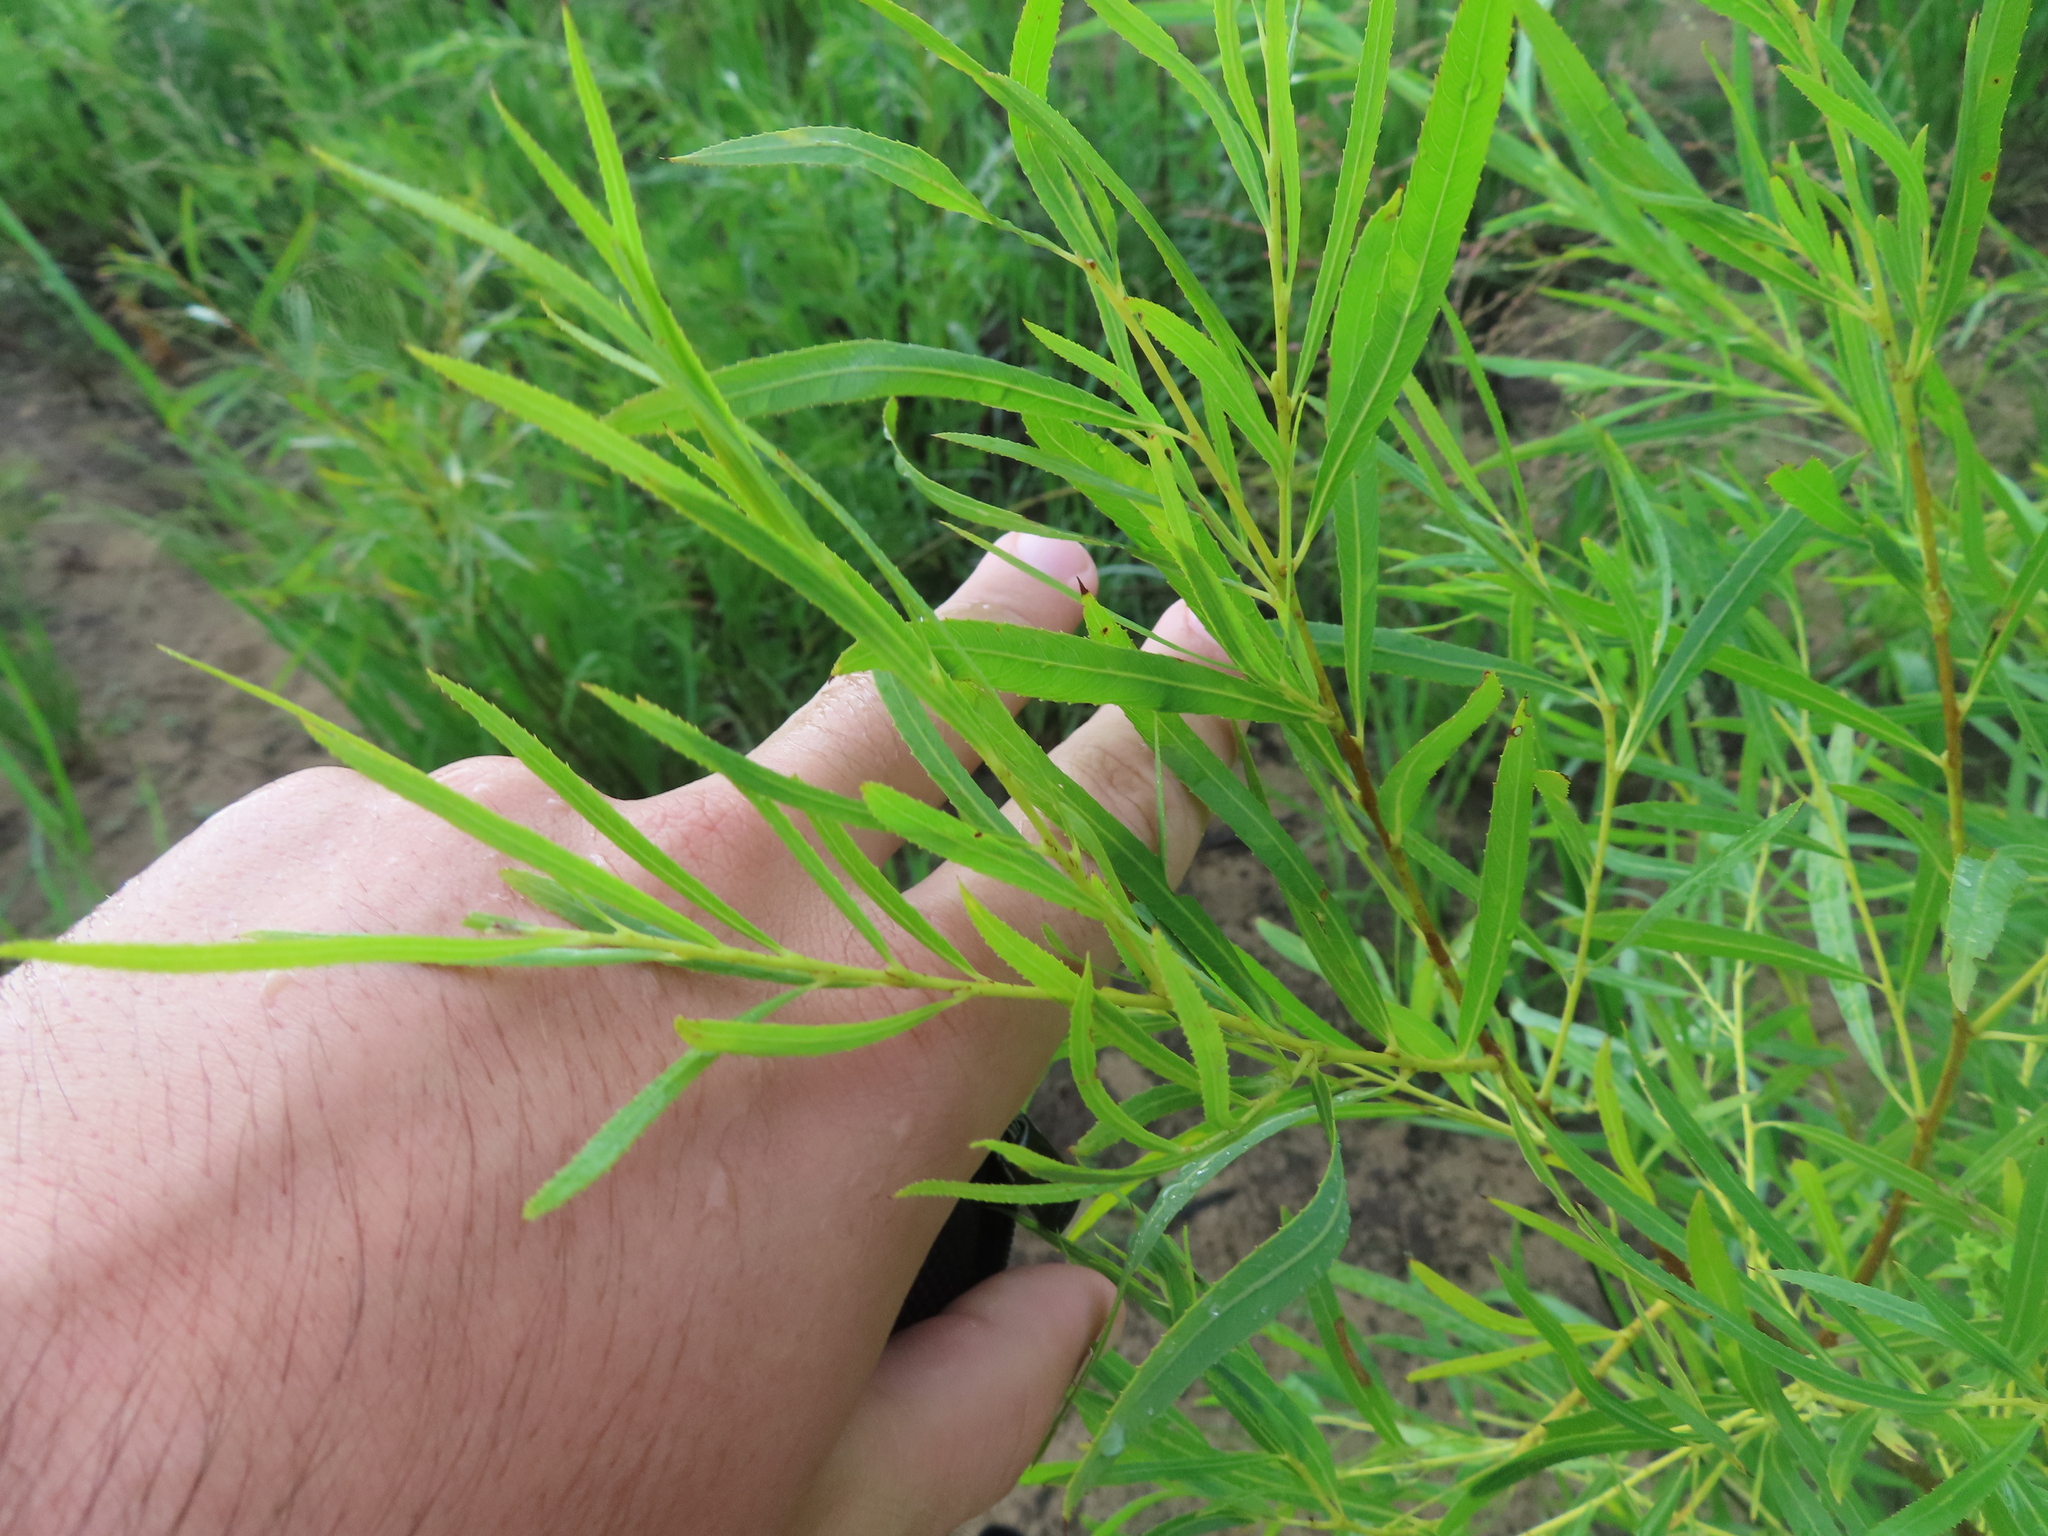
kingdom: Plantae
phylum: Tracheophyta
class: Magnoliopsida
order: Malpighiales
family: Salicaceae
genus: Salix
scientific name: Salix interior
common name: Sandbar willow
